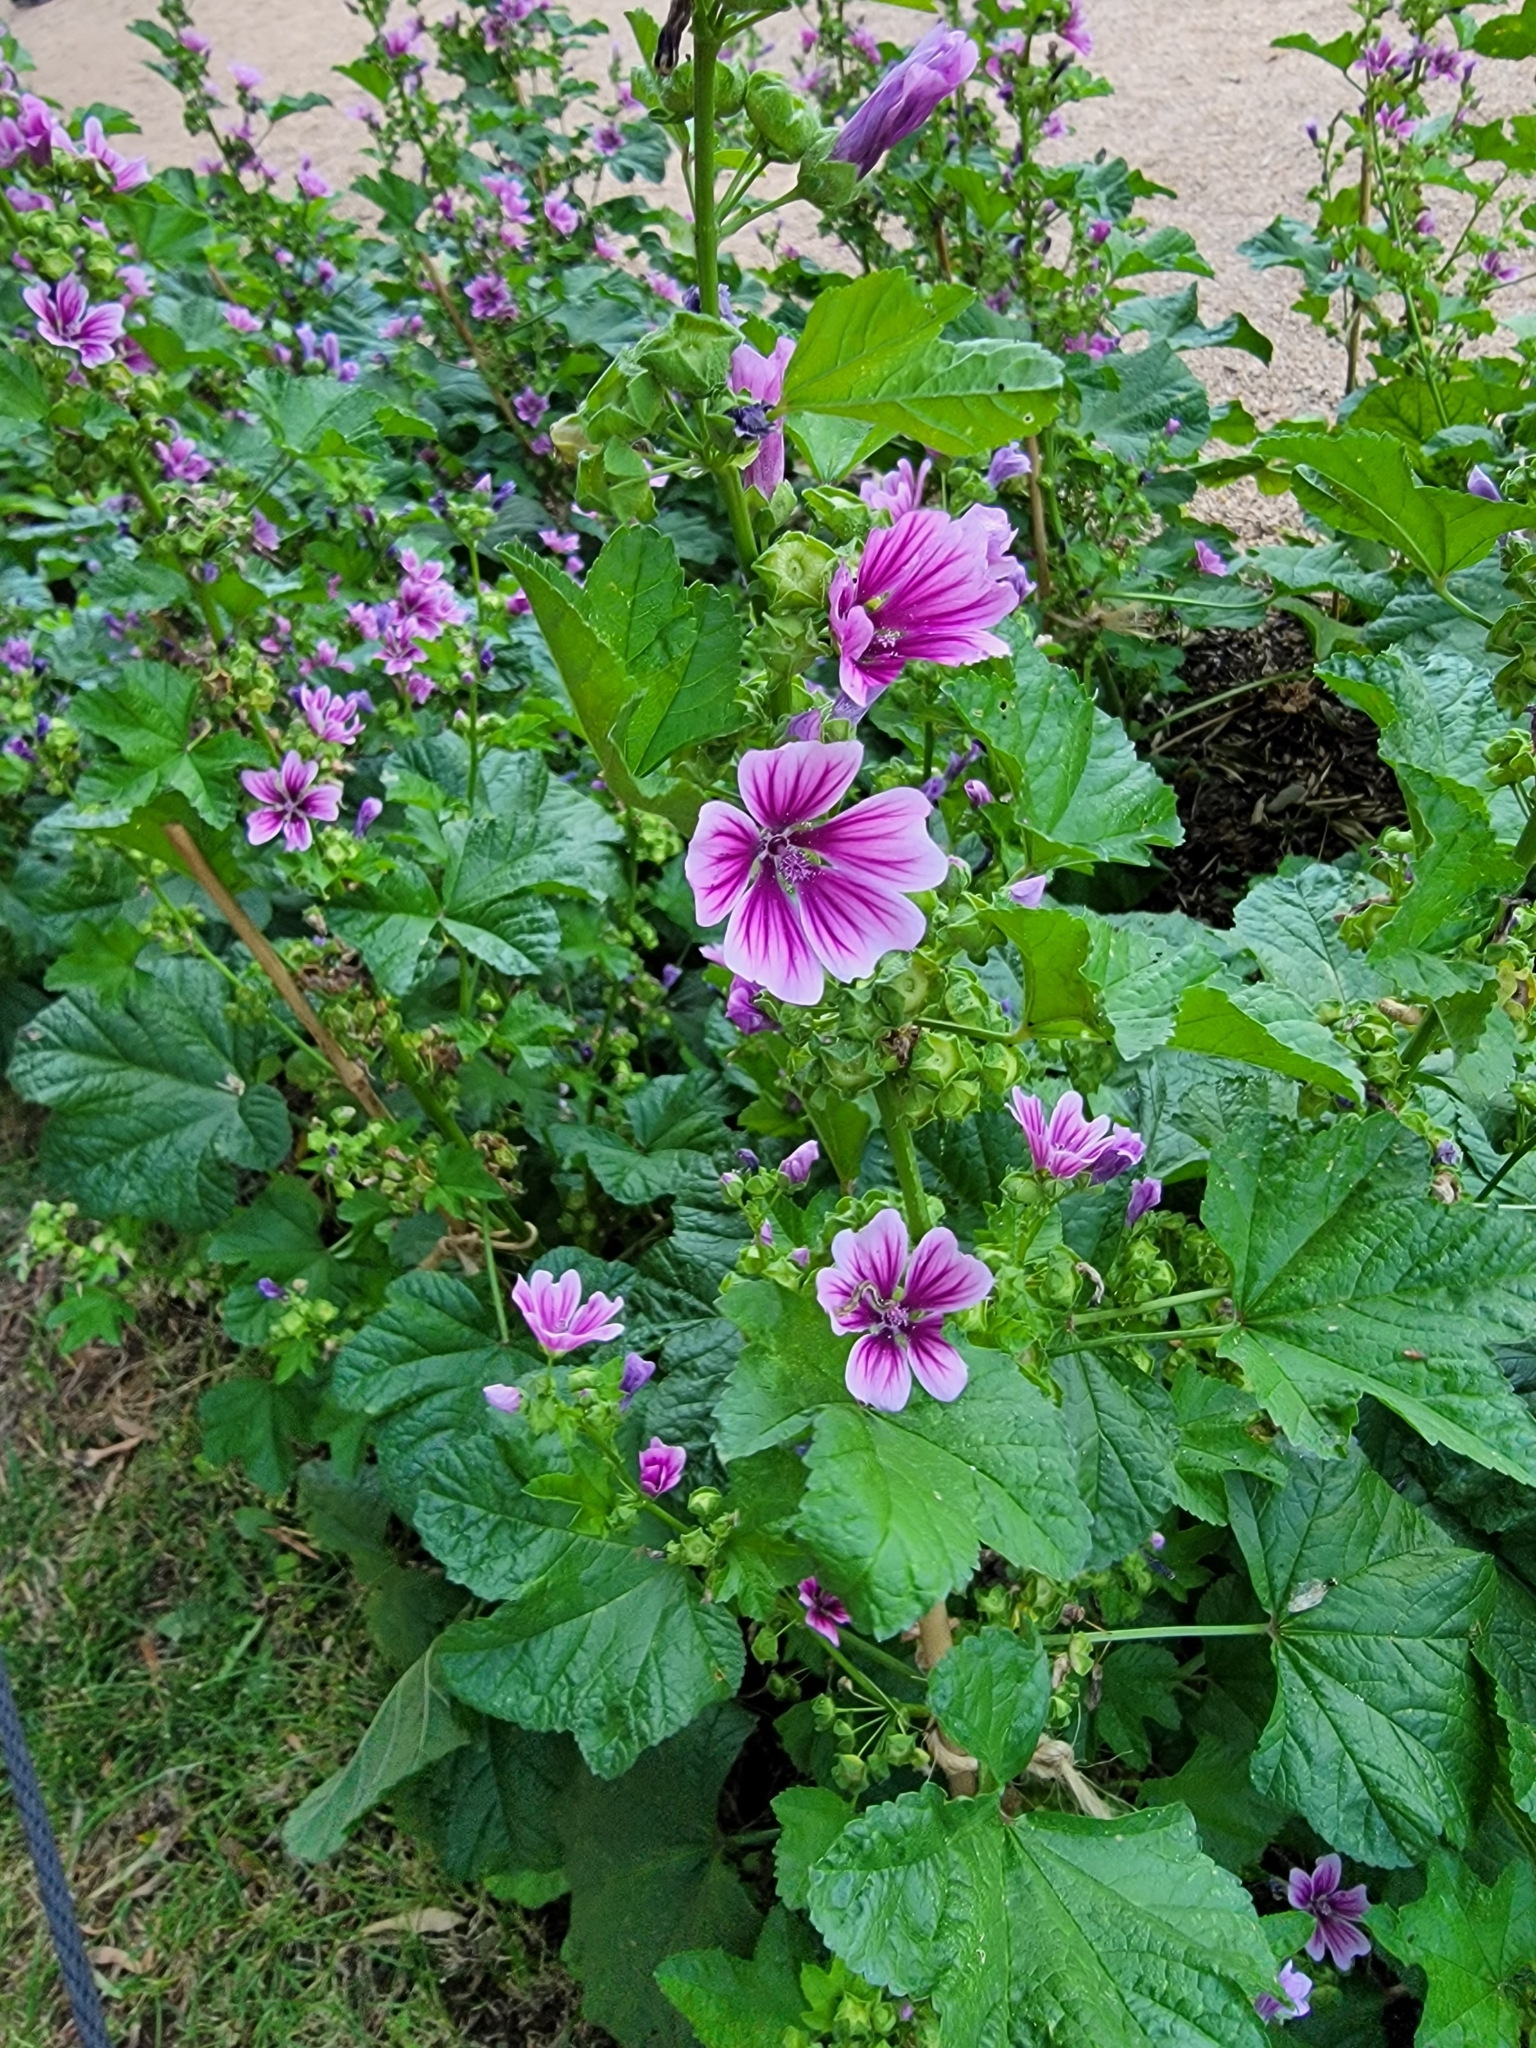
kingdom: Plantae
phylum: Tracheophyta
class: Magnoliopsida
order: Malvales
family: Malvaceae
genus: Malva
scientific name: Malva sylvestris
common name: Common mallow
